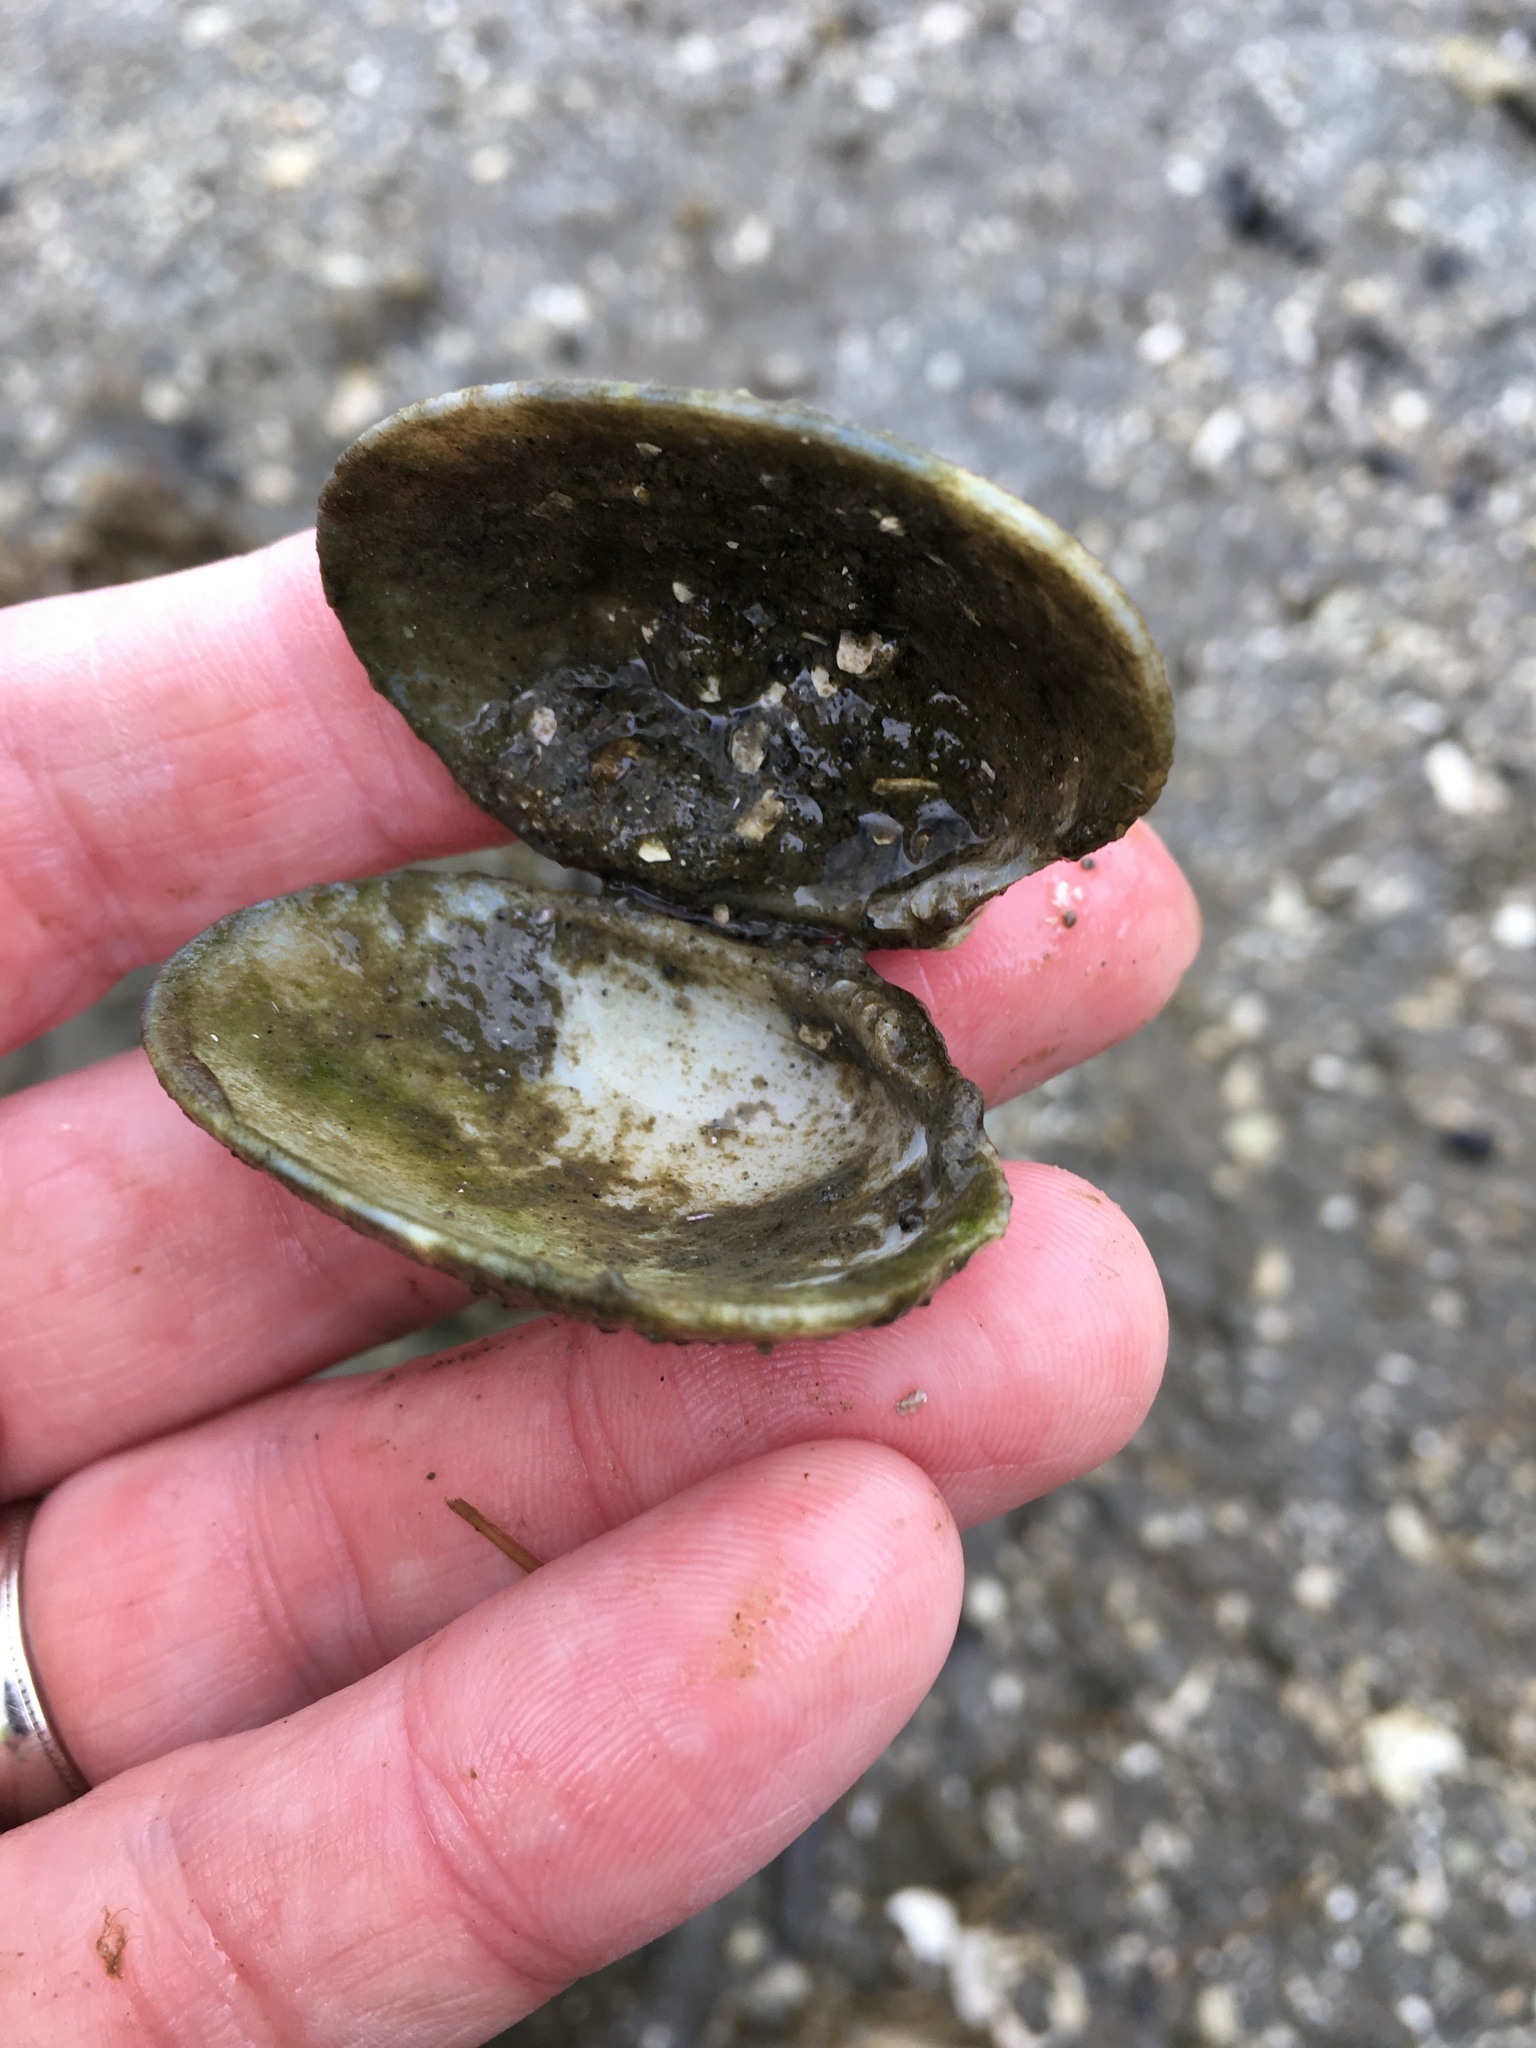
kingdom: Animalia
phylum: Mollusca
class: Bivalvia
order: Venerida
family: Veneridae
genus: Ruditapes
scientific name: Ruditapes philippinarum
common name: Manila clam
